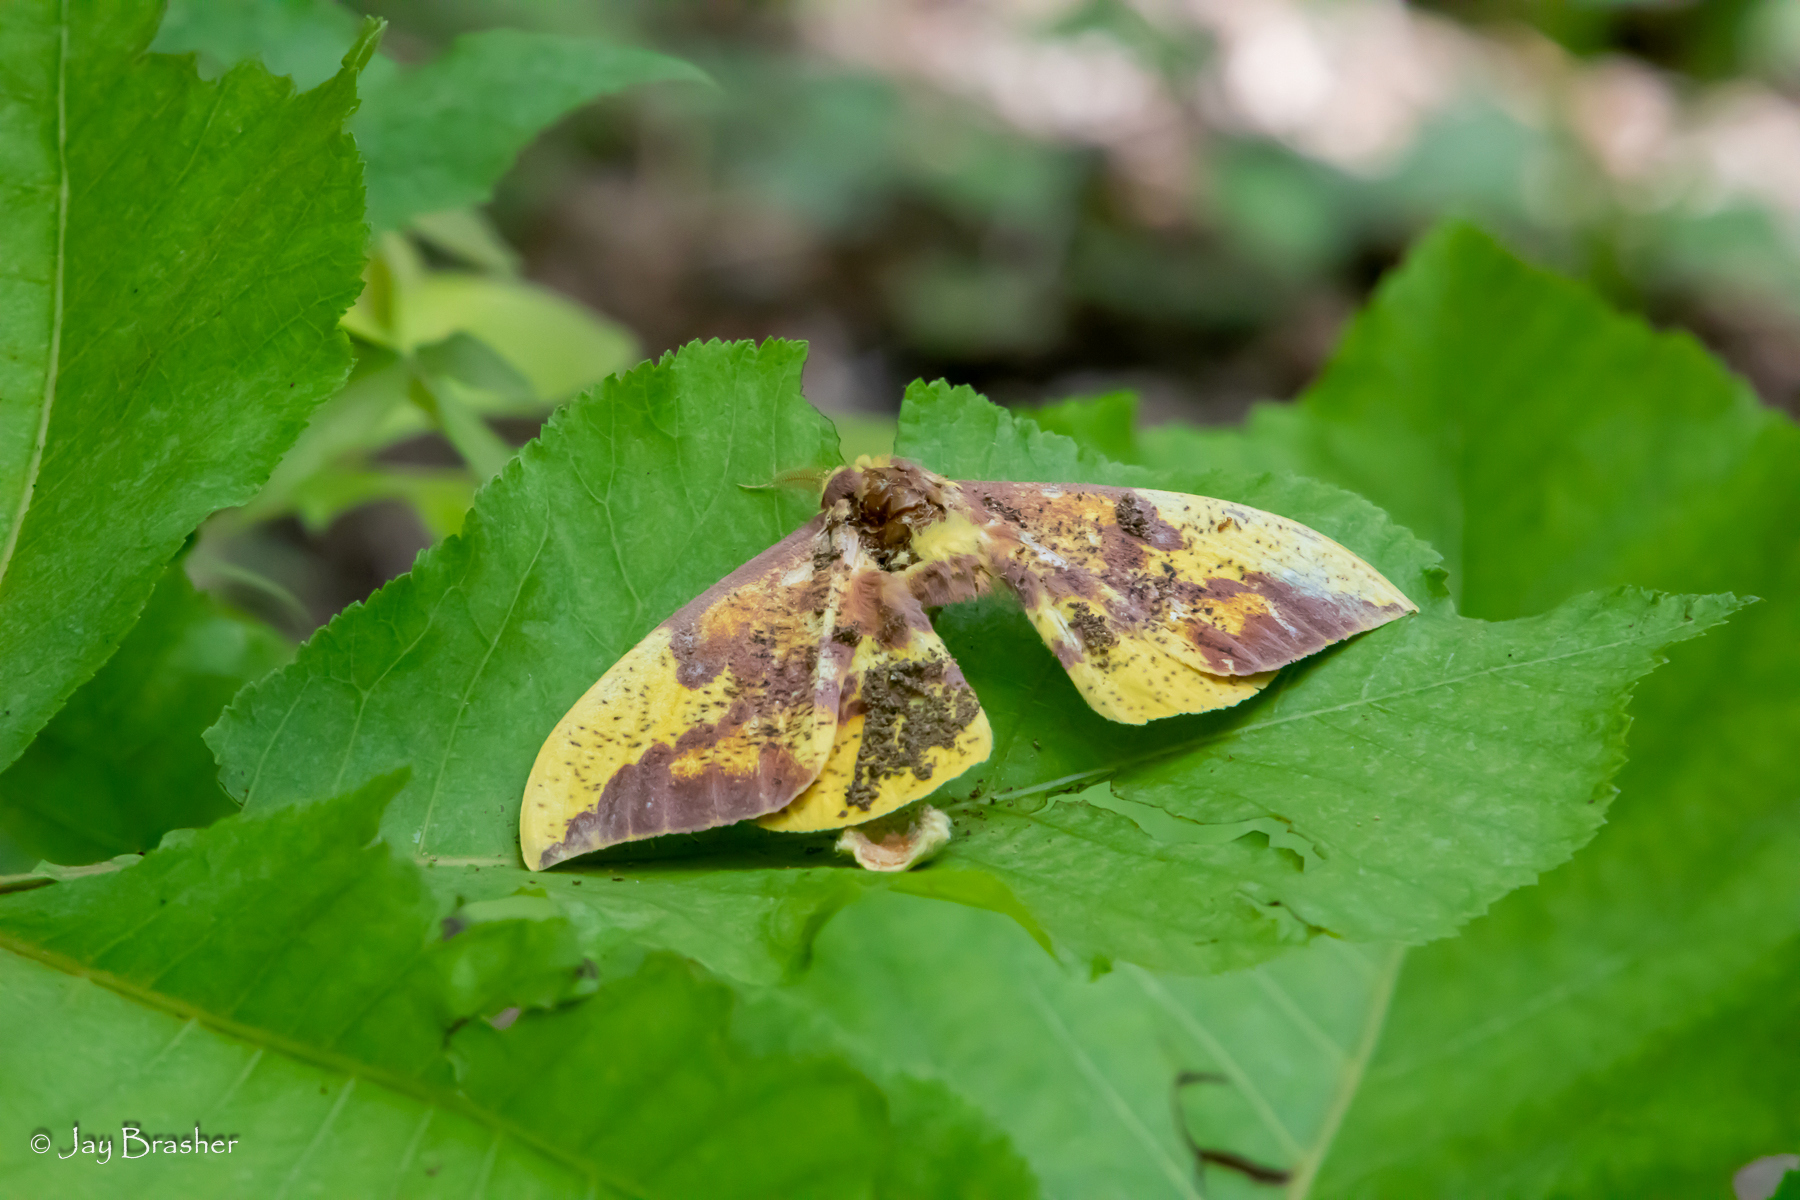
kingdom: Animalia
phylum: Arthropoda
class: Insecta
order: Lepidoptera
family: Saturniidae
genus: Eacles
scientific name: Eacles imperialis
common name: Imperial moth
